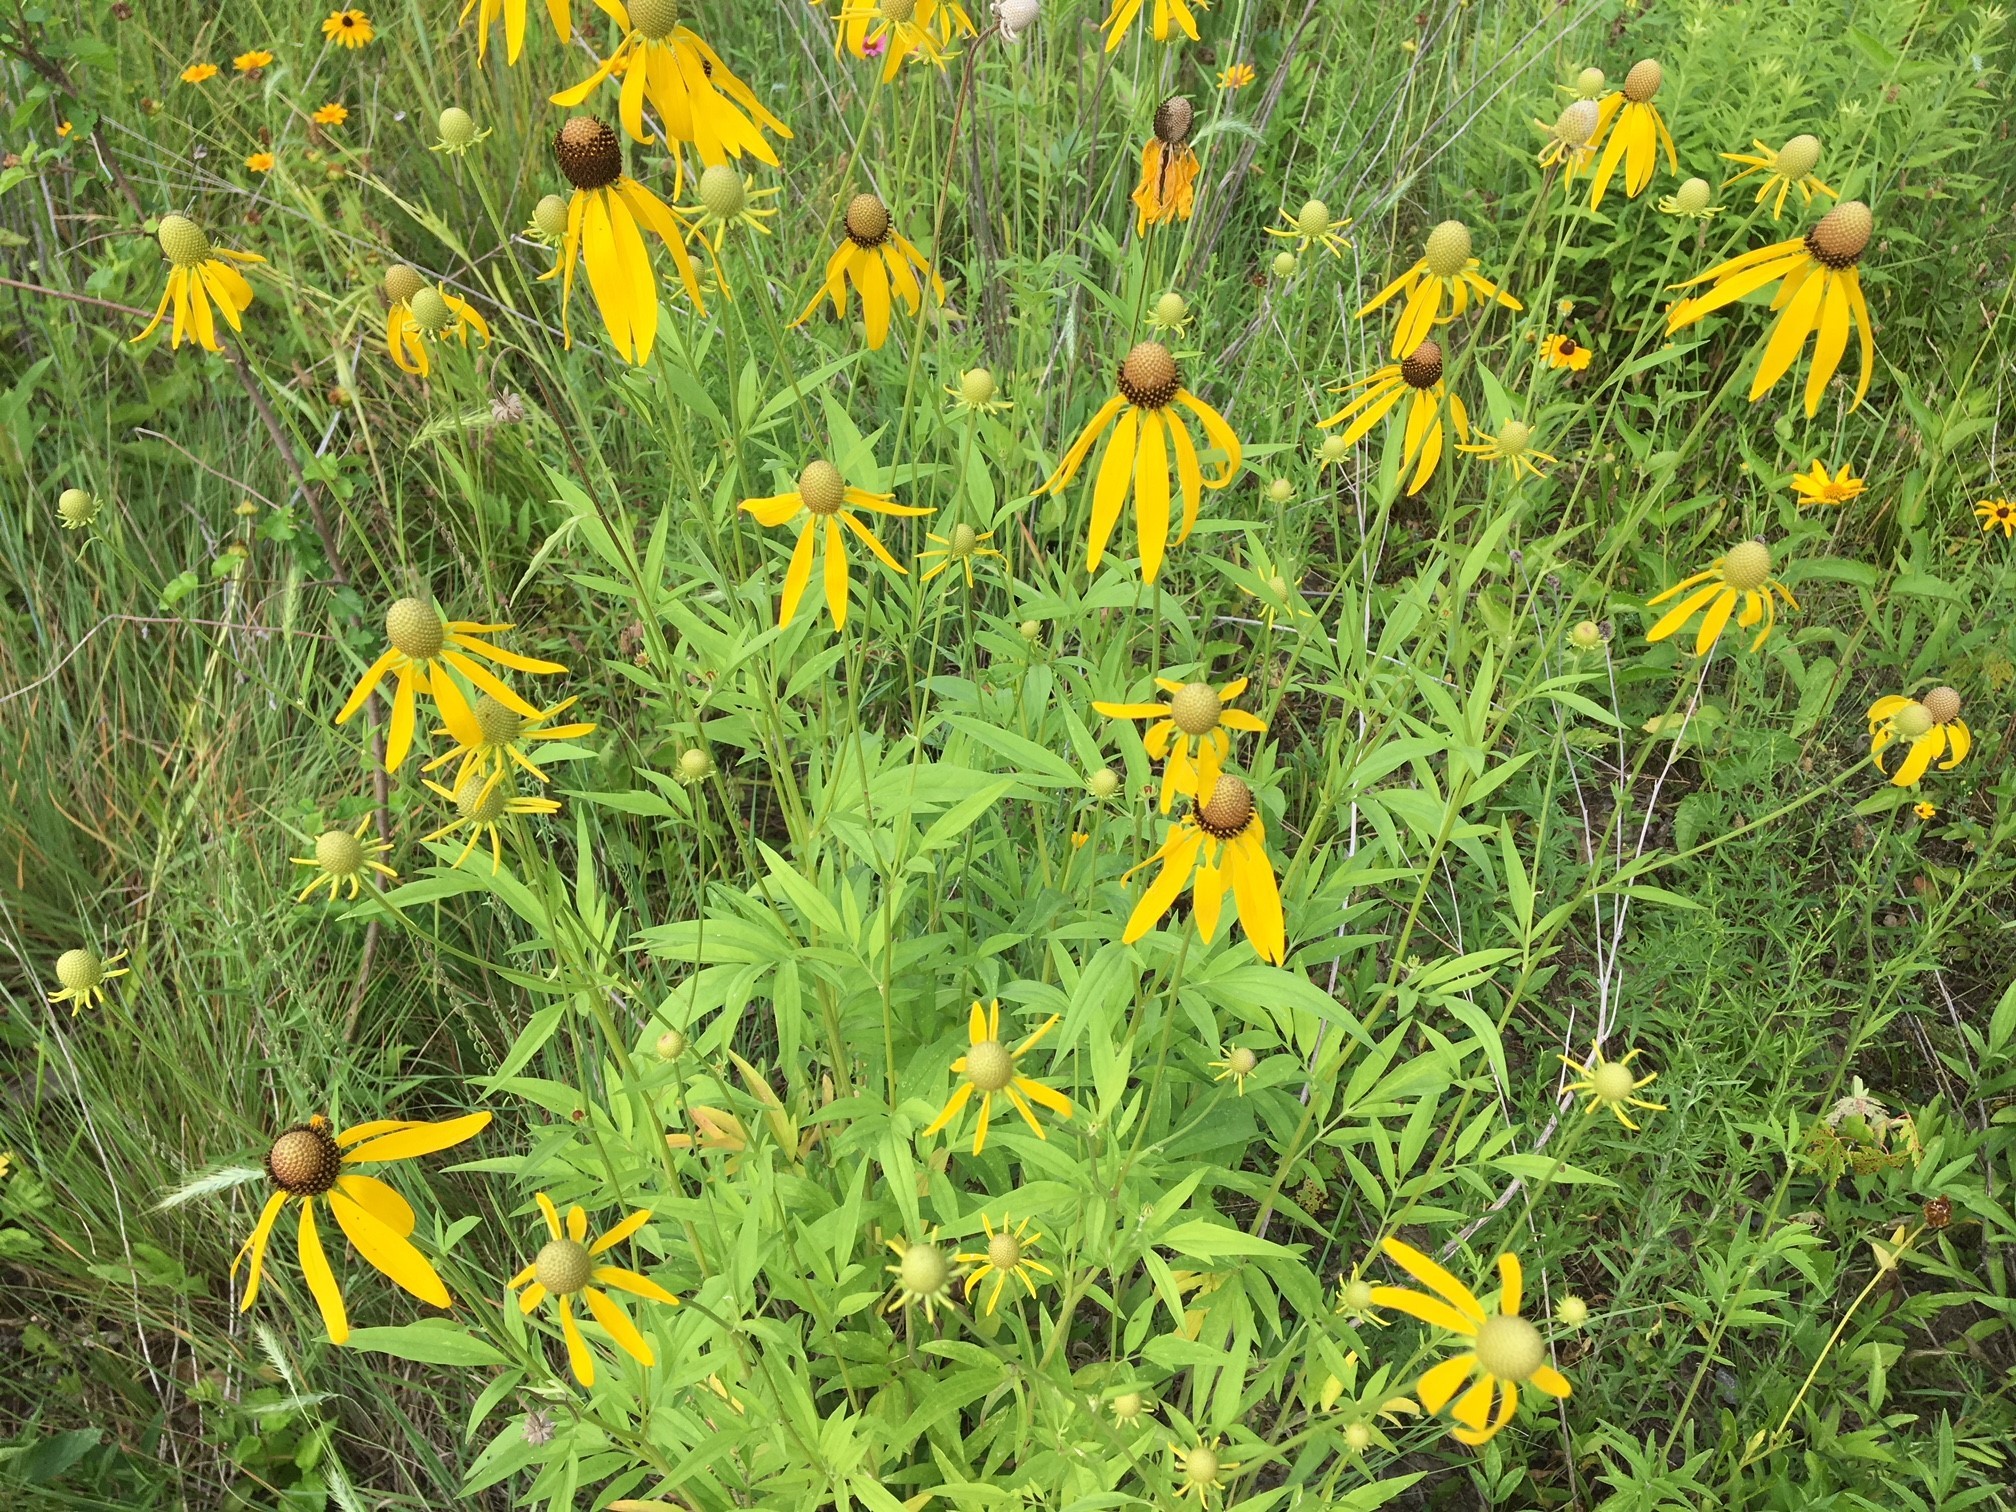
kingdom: Plantae
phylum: Tracheophyta
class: Magnoliopsida
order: Asterales
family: Asteraceae
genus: Ratibida
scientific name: Ratibida pinnata
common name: Drooping prairie-coneflower
